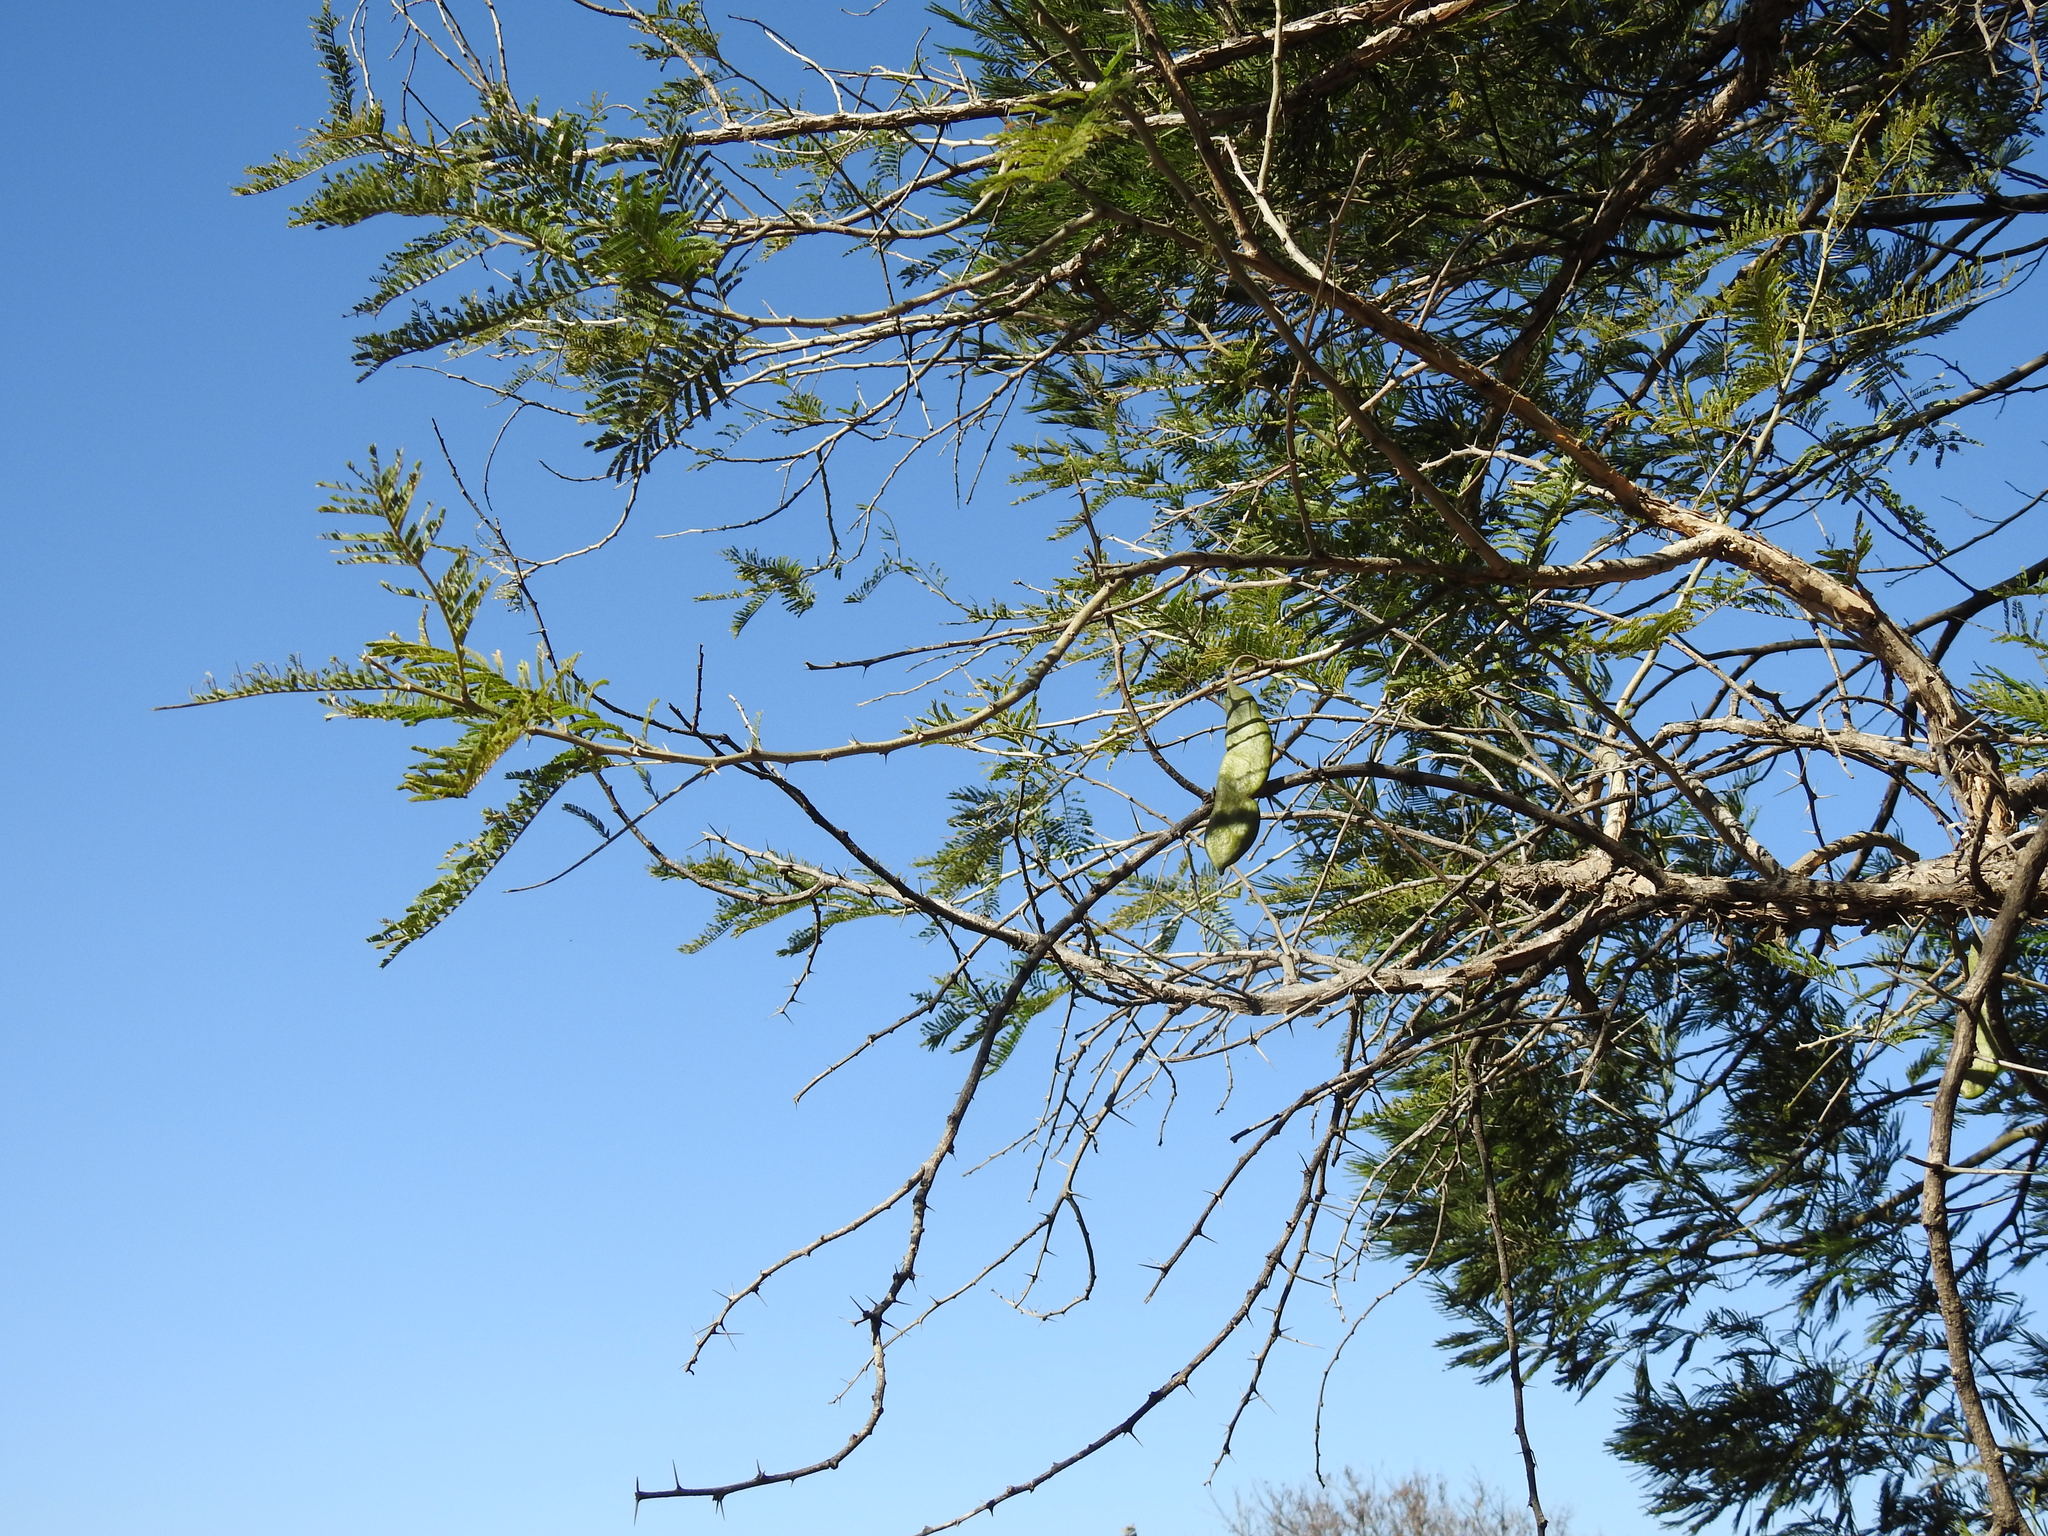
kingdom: Plantae
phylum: Tracheophyta
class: Magnoliopsida
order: Fabales
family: Fabaceae
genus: Vachellia
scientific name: Vachellia sieberiana
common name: Flat-topped thorn
